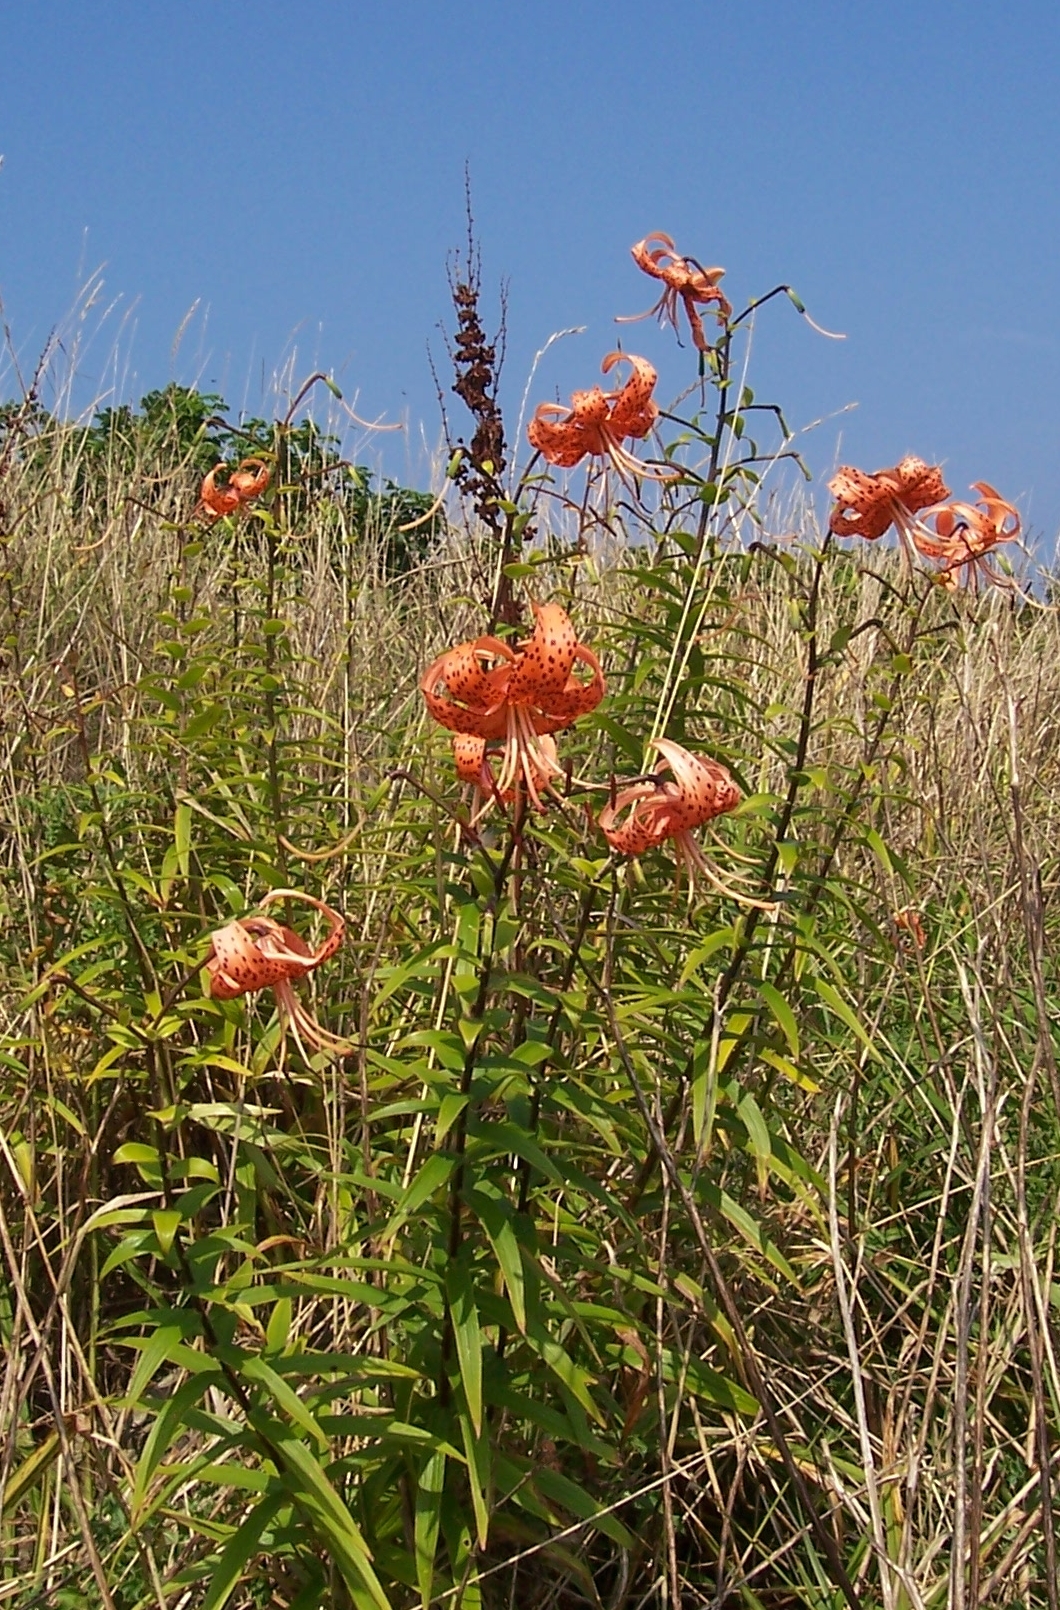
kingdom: Plantae
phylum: Tracheophyta
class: Liliopsida
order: Liliales
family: Liliaceae
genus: Lilium
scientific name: Lilium lancifolium
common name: Tiger lily
